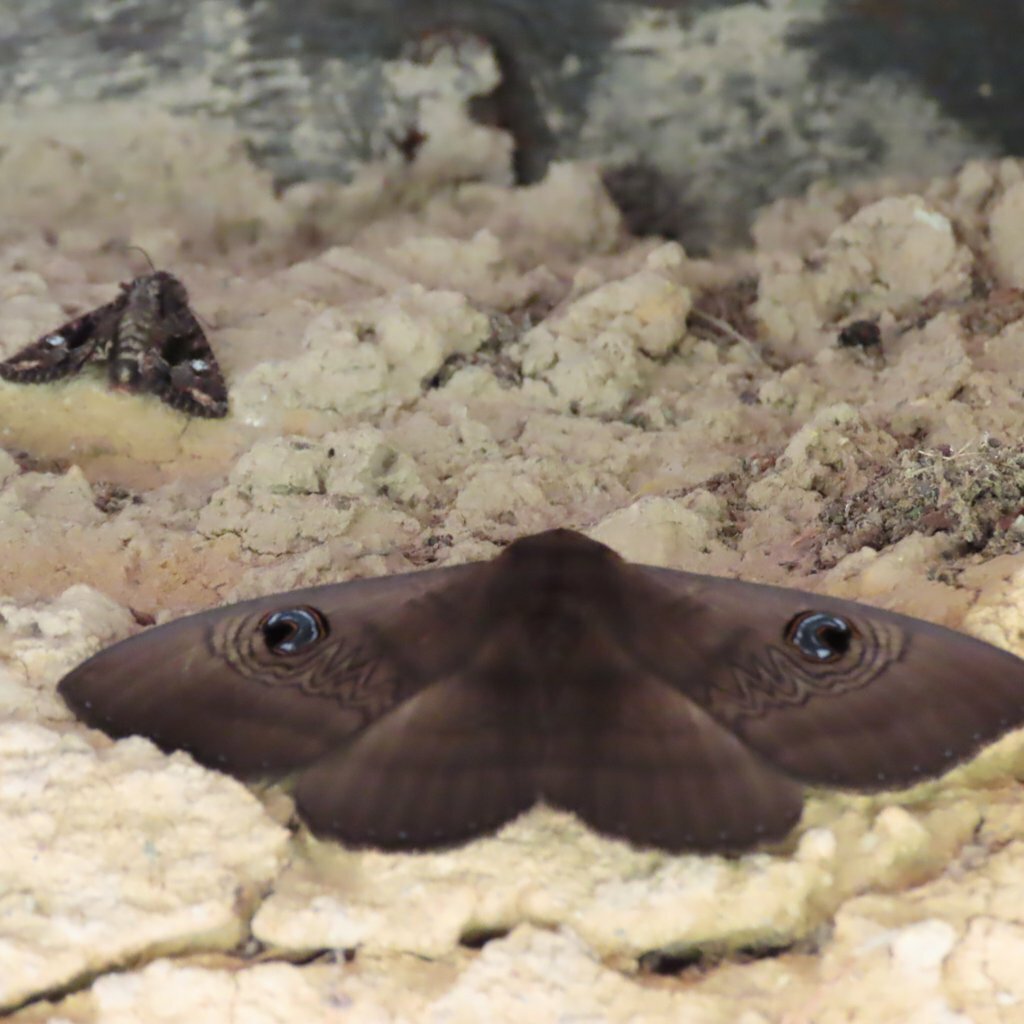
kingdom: Animalia
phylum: Arthropoda
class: Insecta
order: Lepidoptera
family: Erebidae
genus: Dasypodia
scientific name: Dasypodia selenophora
